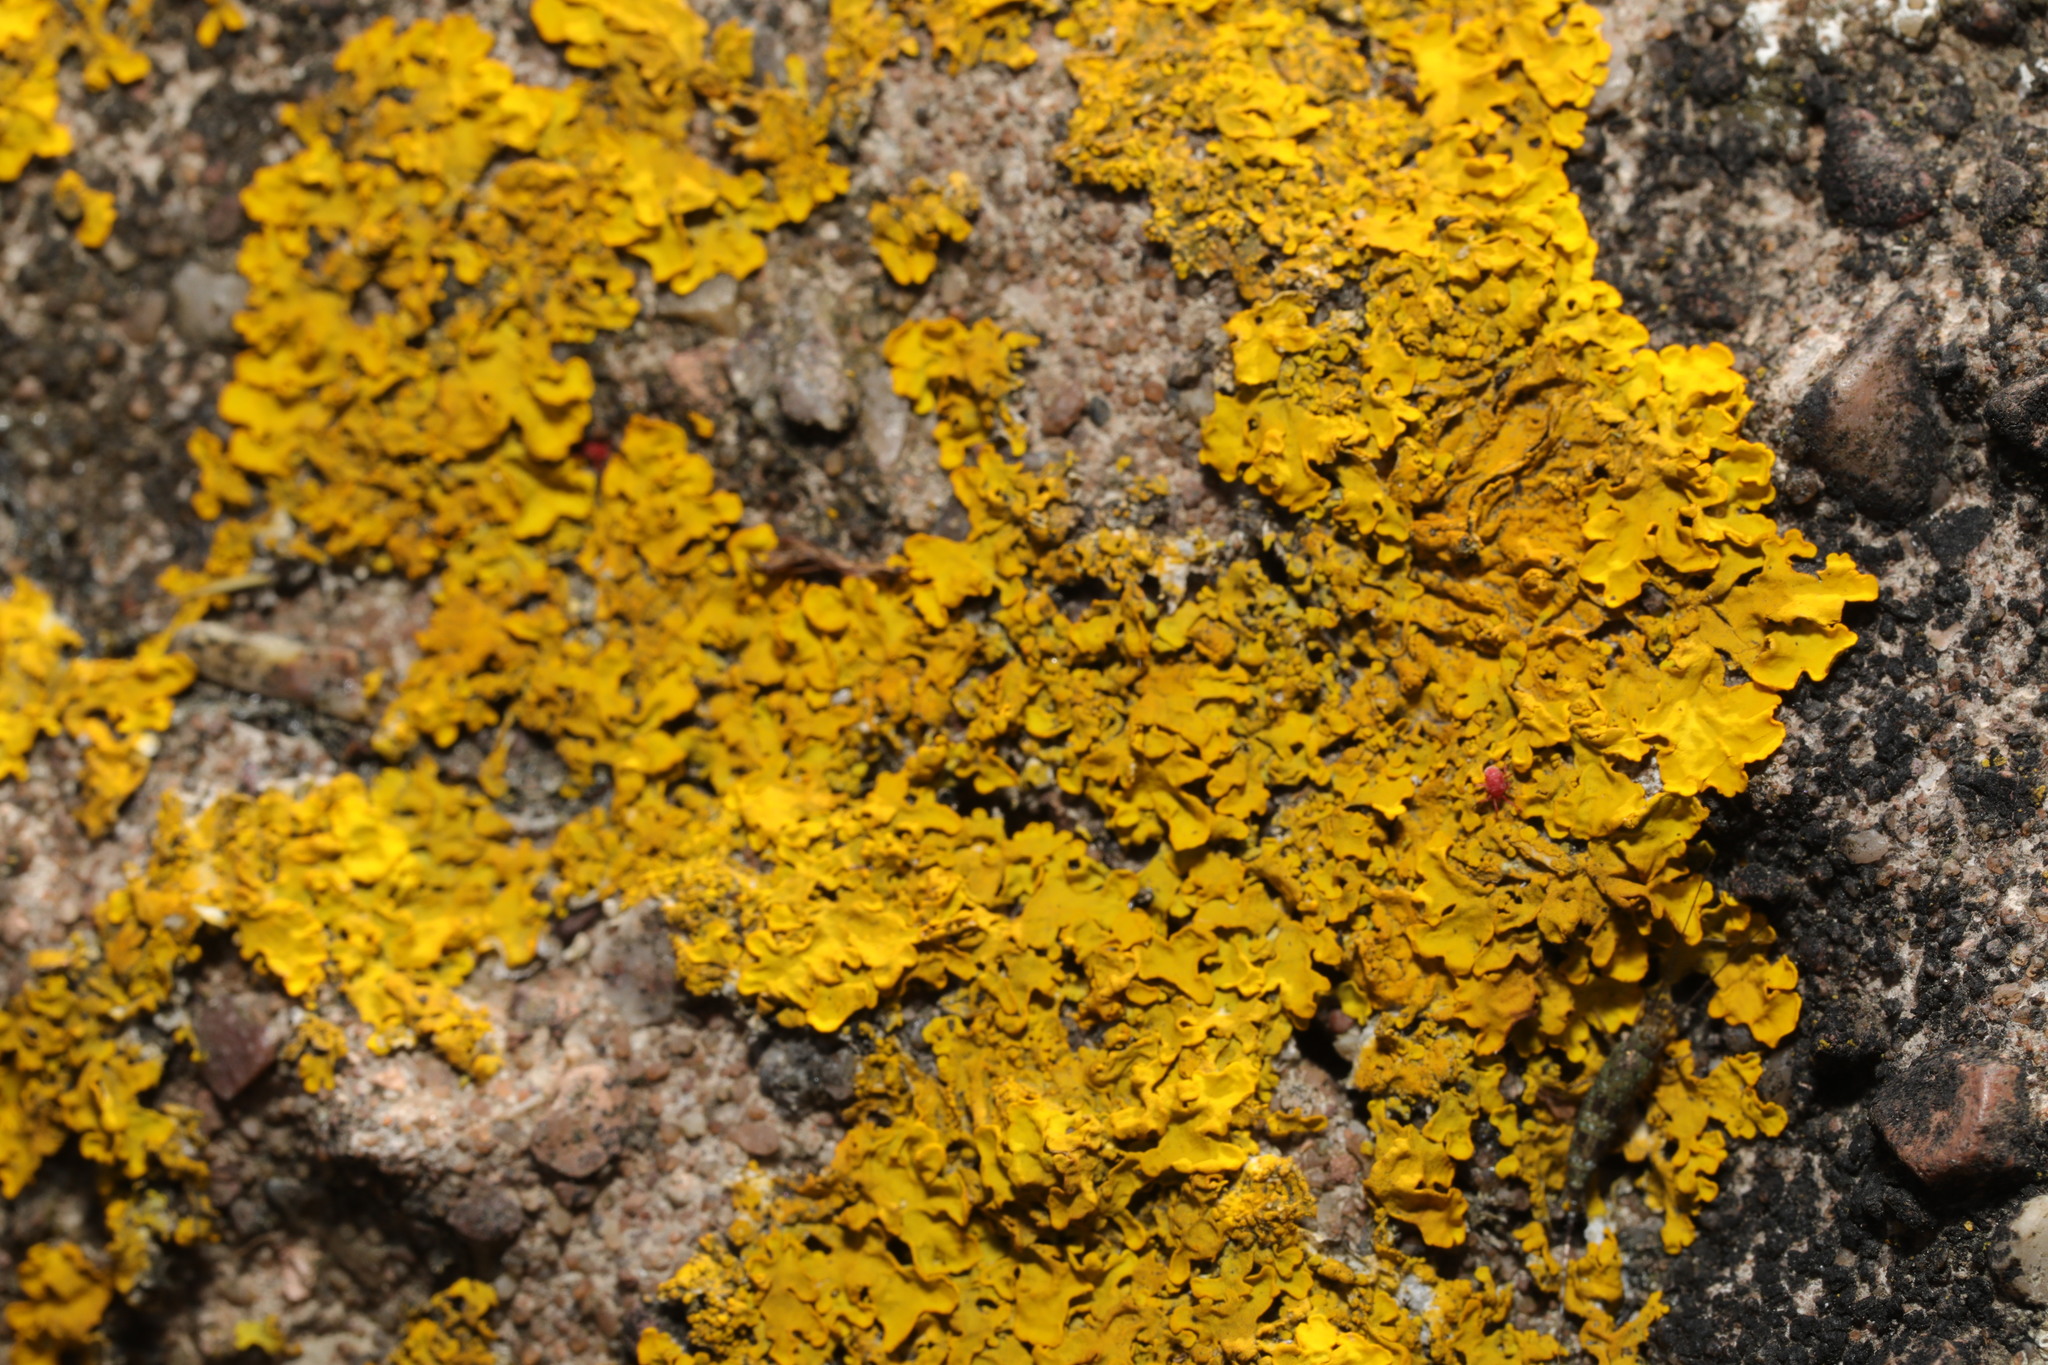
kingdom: Fungi
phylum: Ascomycota
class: Lecanoromycetes
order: Teloschistales
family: Teloschistaceae
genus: Xanthoria
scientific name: Xanthoria parietina
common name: Common orange lichen
